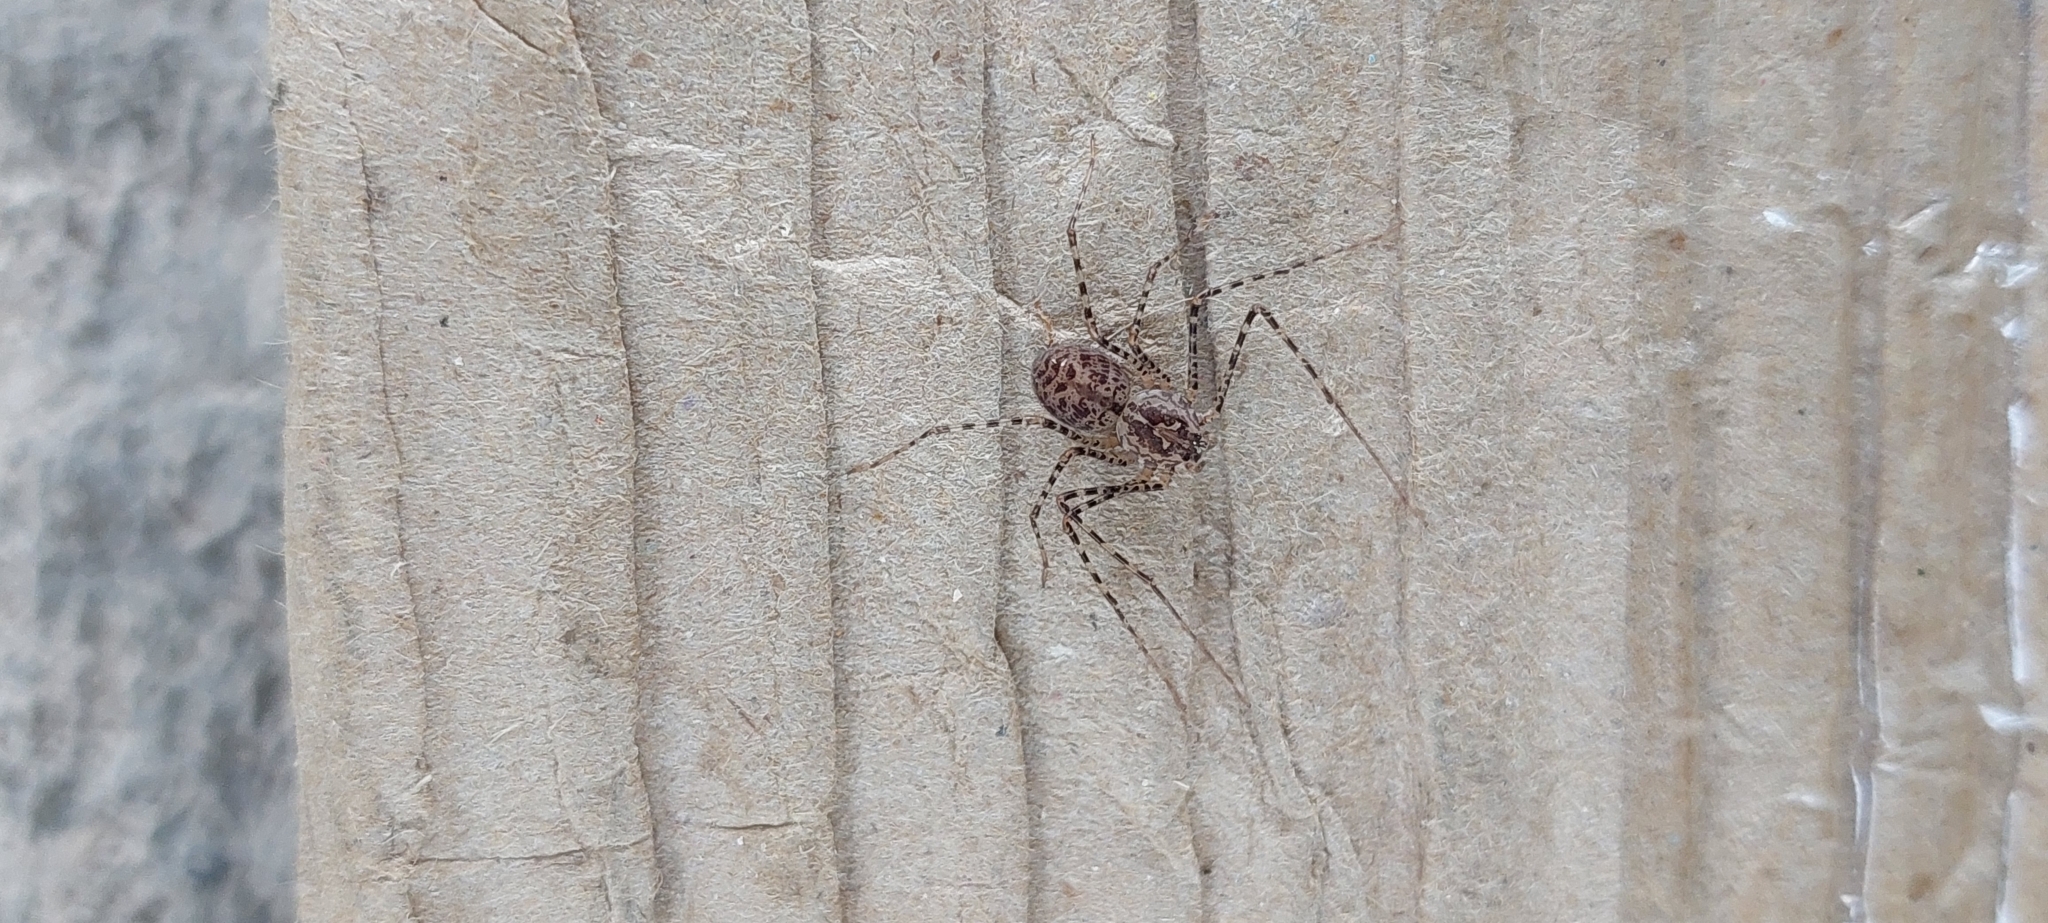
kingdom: Animalia
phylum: Arthropoda
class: Arachnida
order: Araneae
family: Scytodidae
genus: Scytodes
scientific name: Scytodes globula
